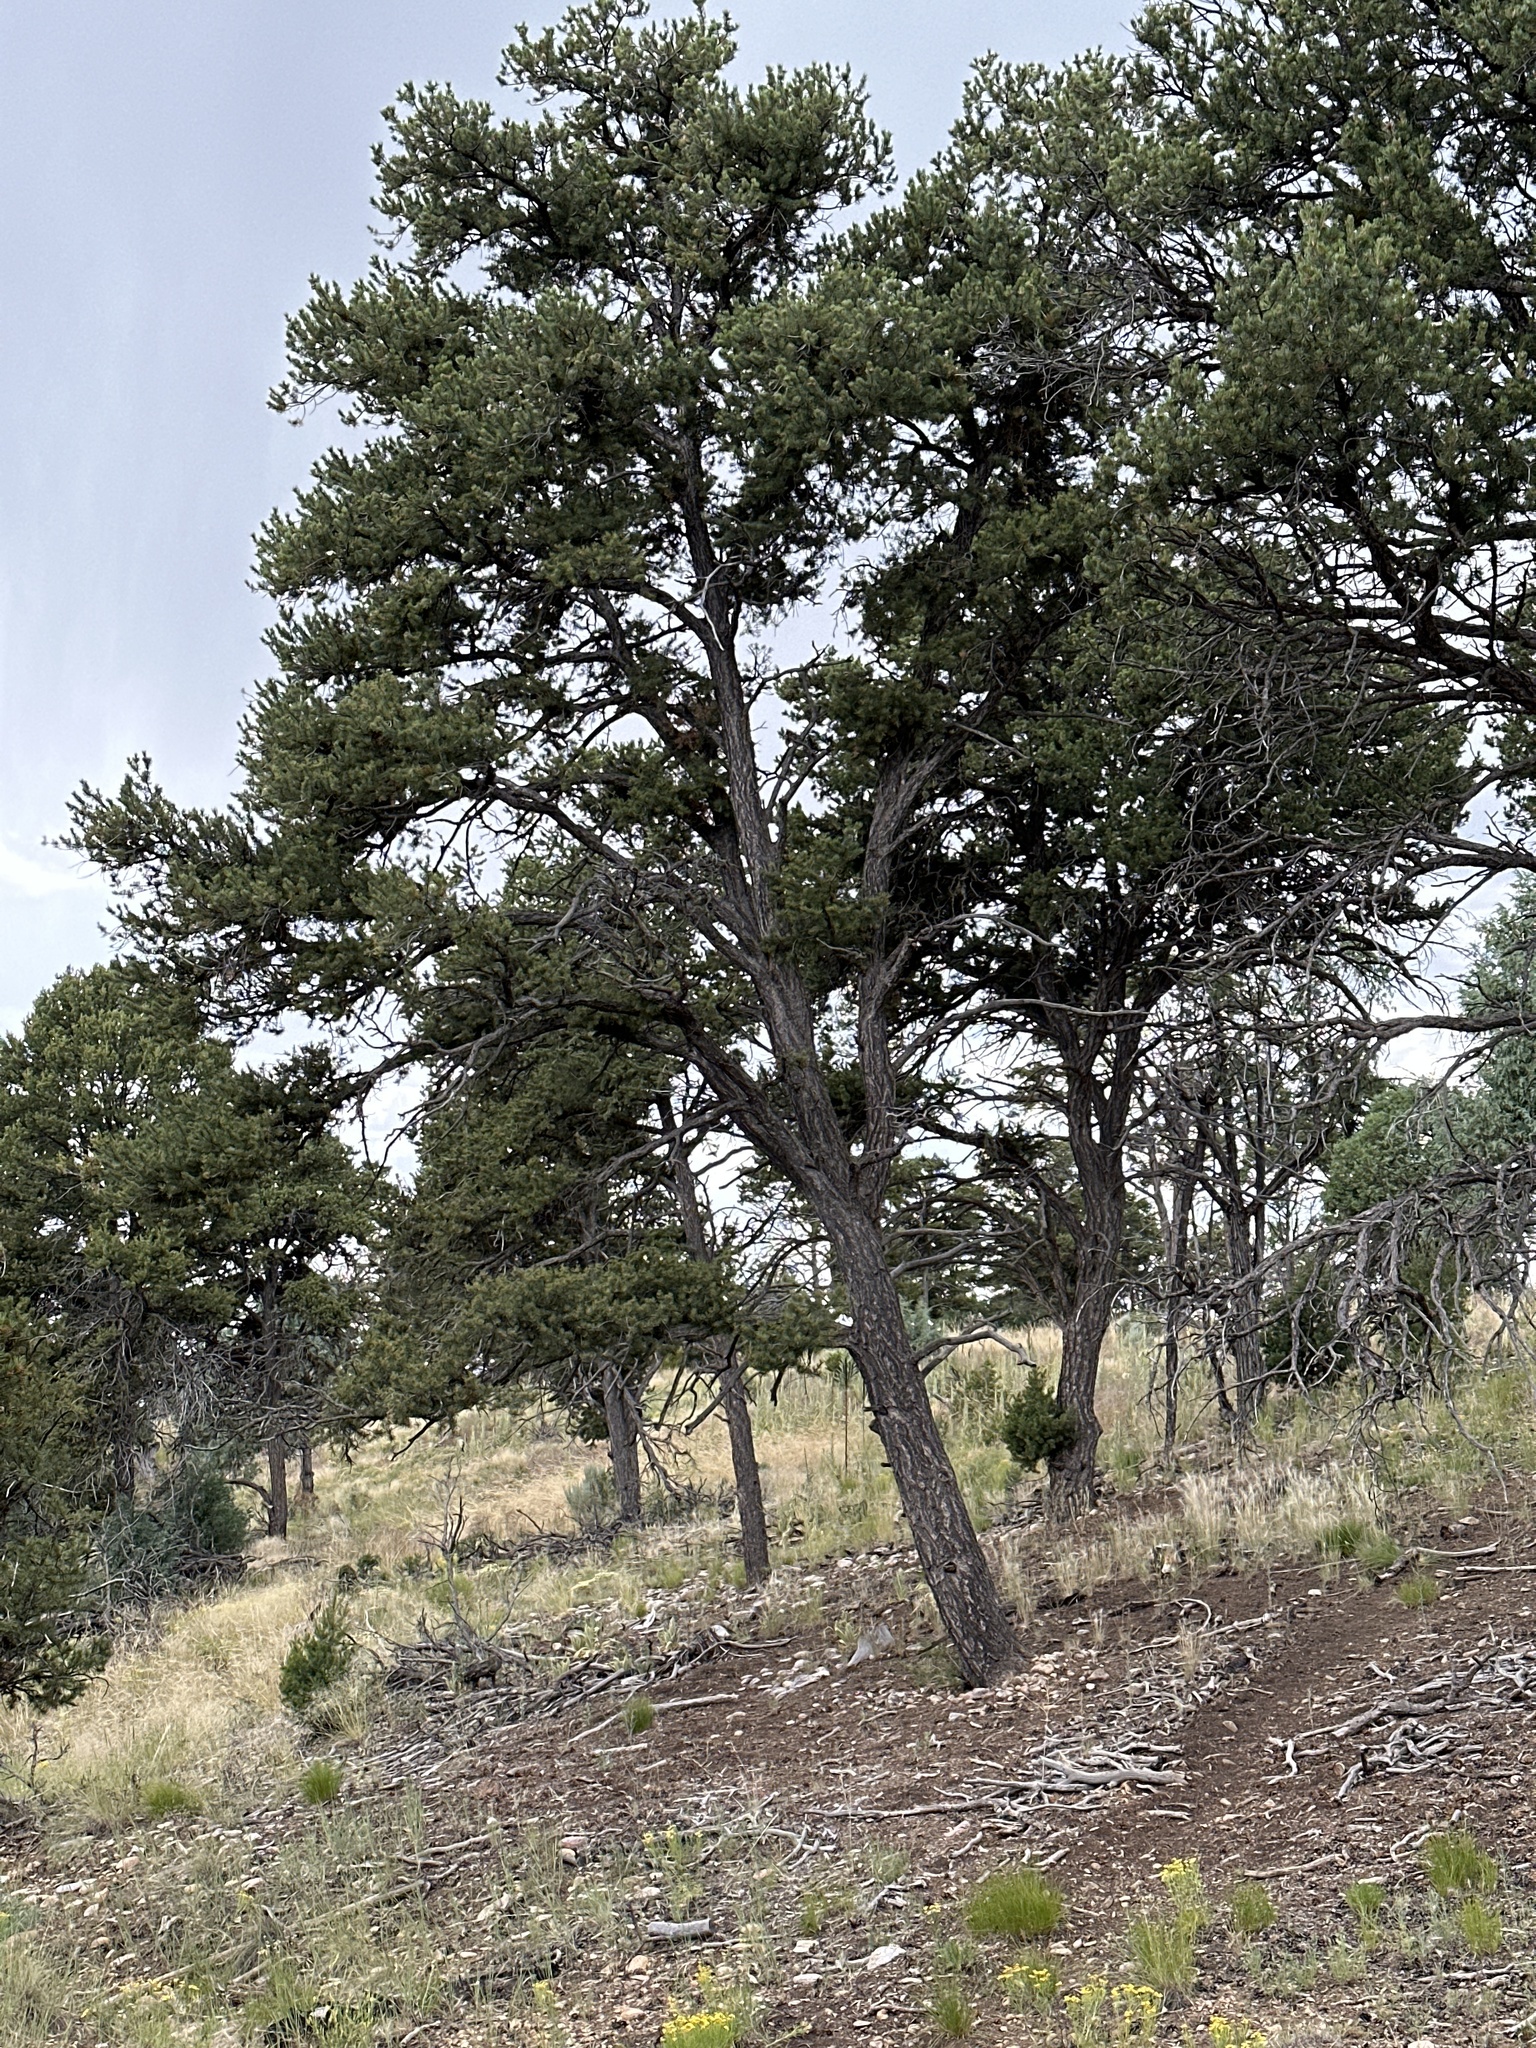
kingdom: Plantae
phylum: Tracheophyta
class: Pinopsida
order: Pinales
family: Pinaceae
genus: Pinus
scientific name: Pinus edulis
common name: Colorado pinyon
